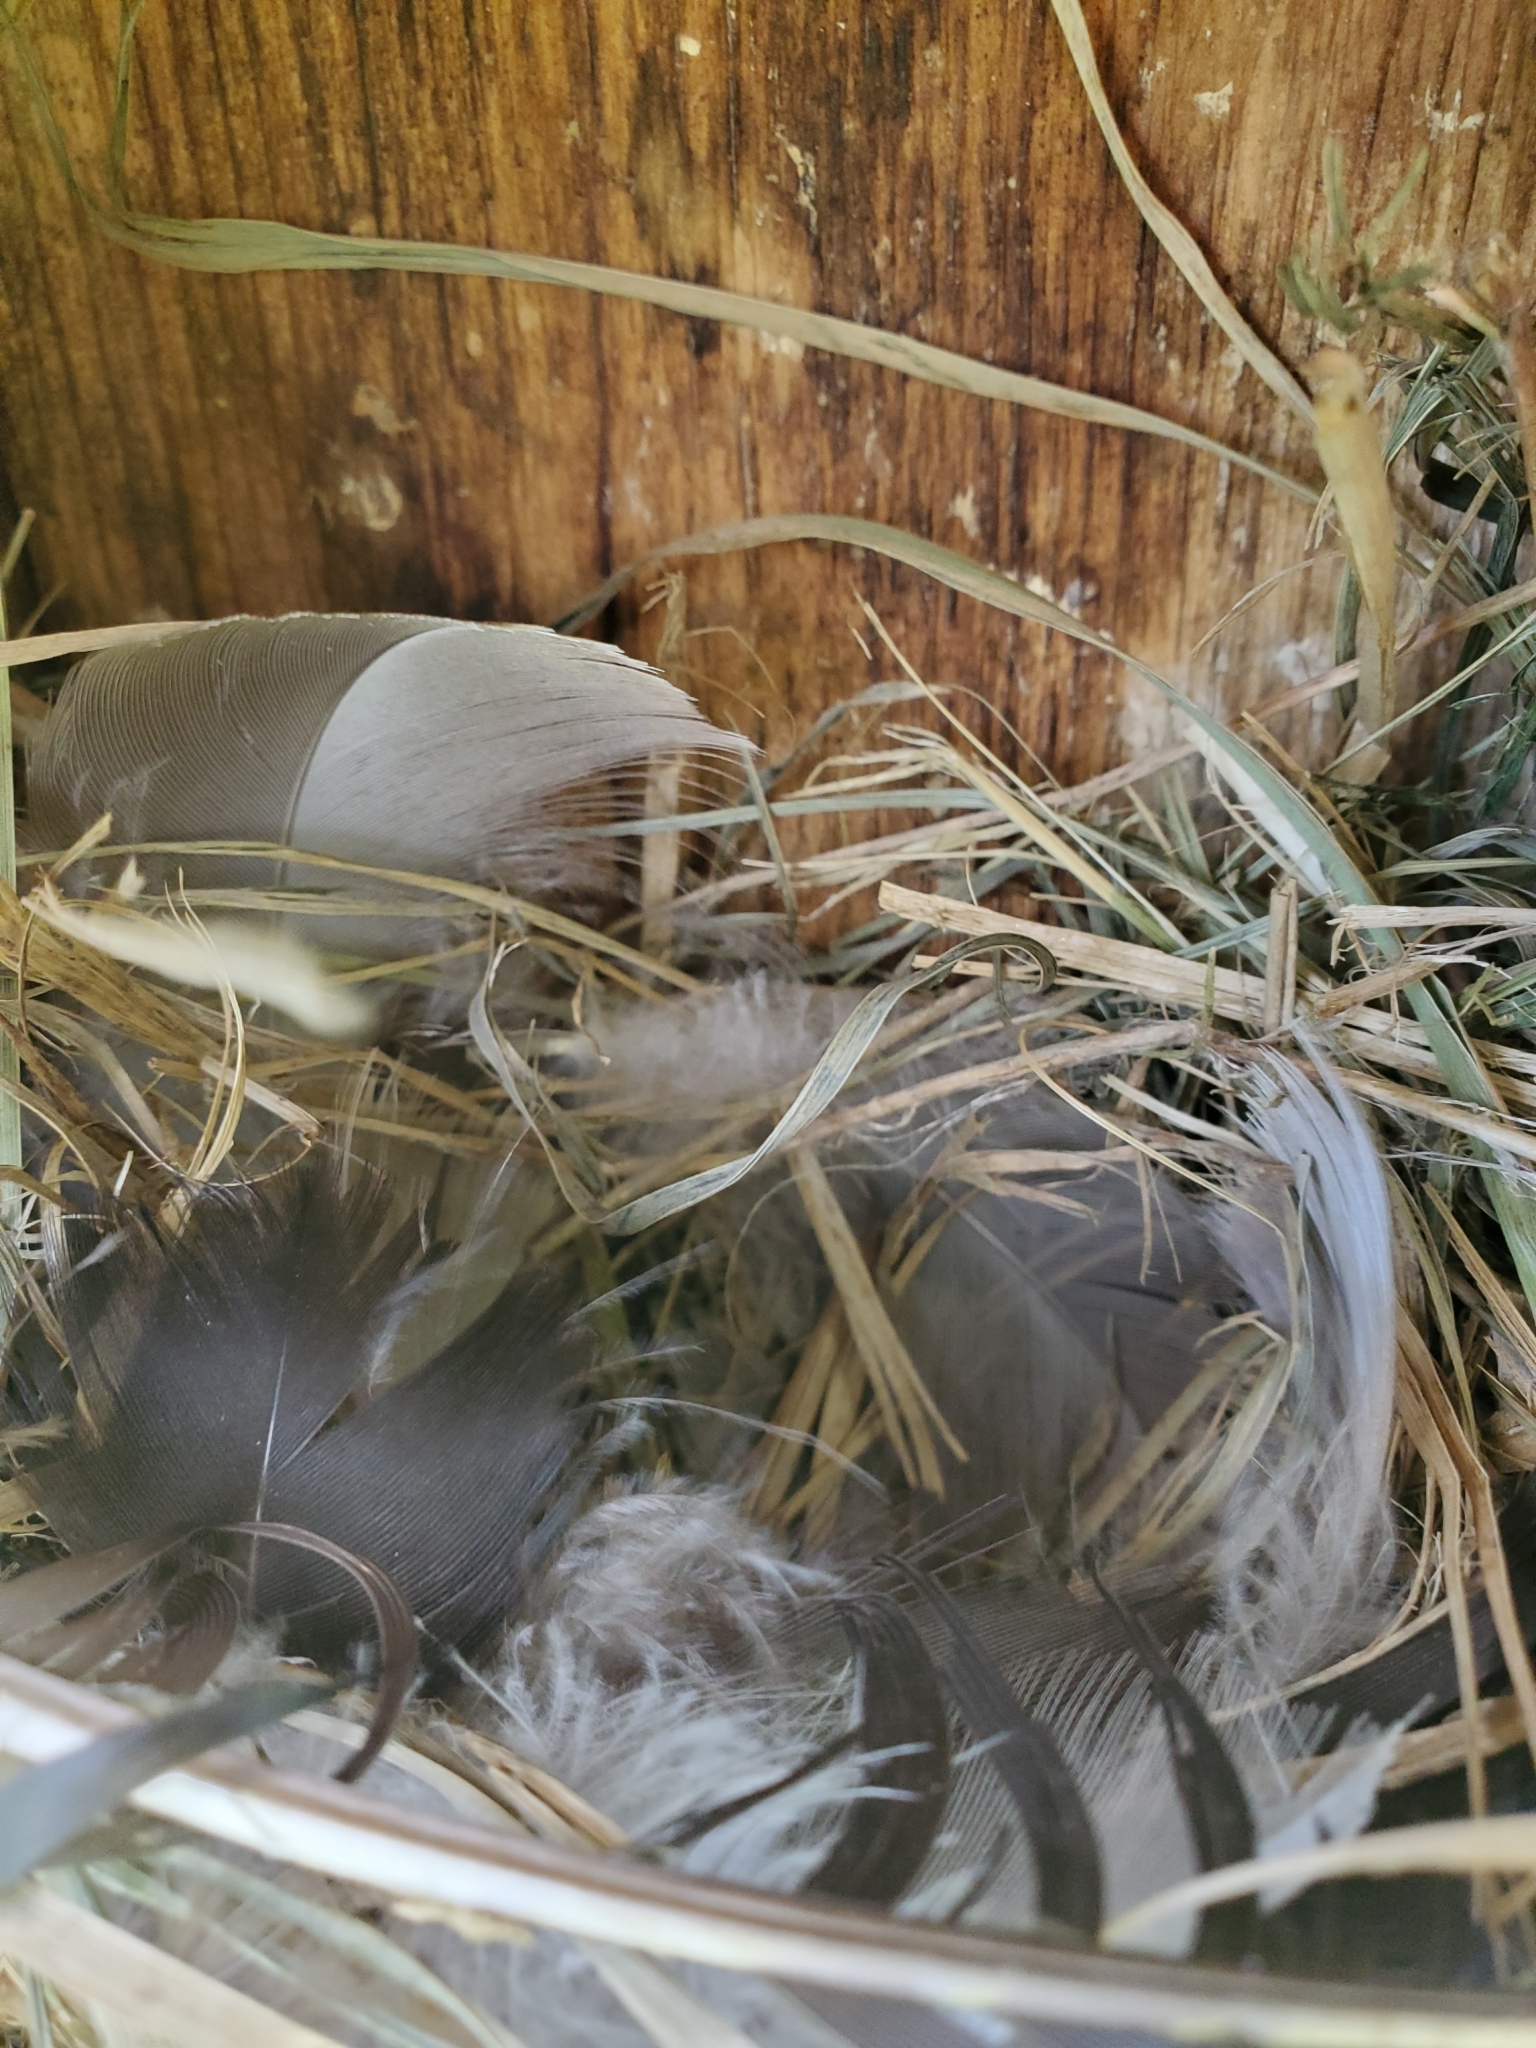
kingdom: Animalia
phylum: Chordata
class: Aves
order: Passeriformes
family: Hirundinidae
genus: Tachycineta
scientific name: Tachycineta bicolor
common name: Tree swallow
